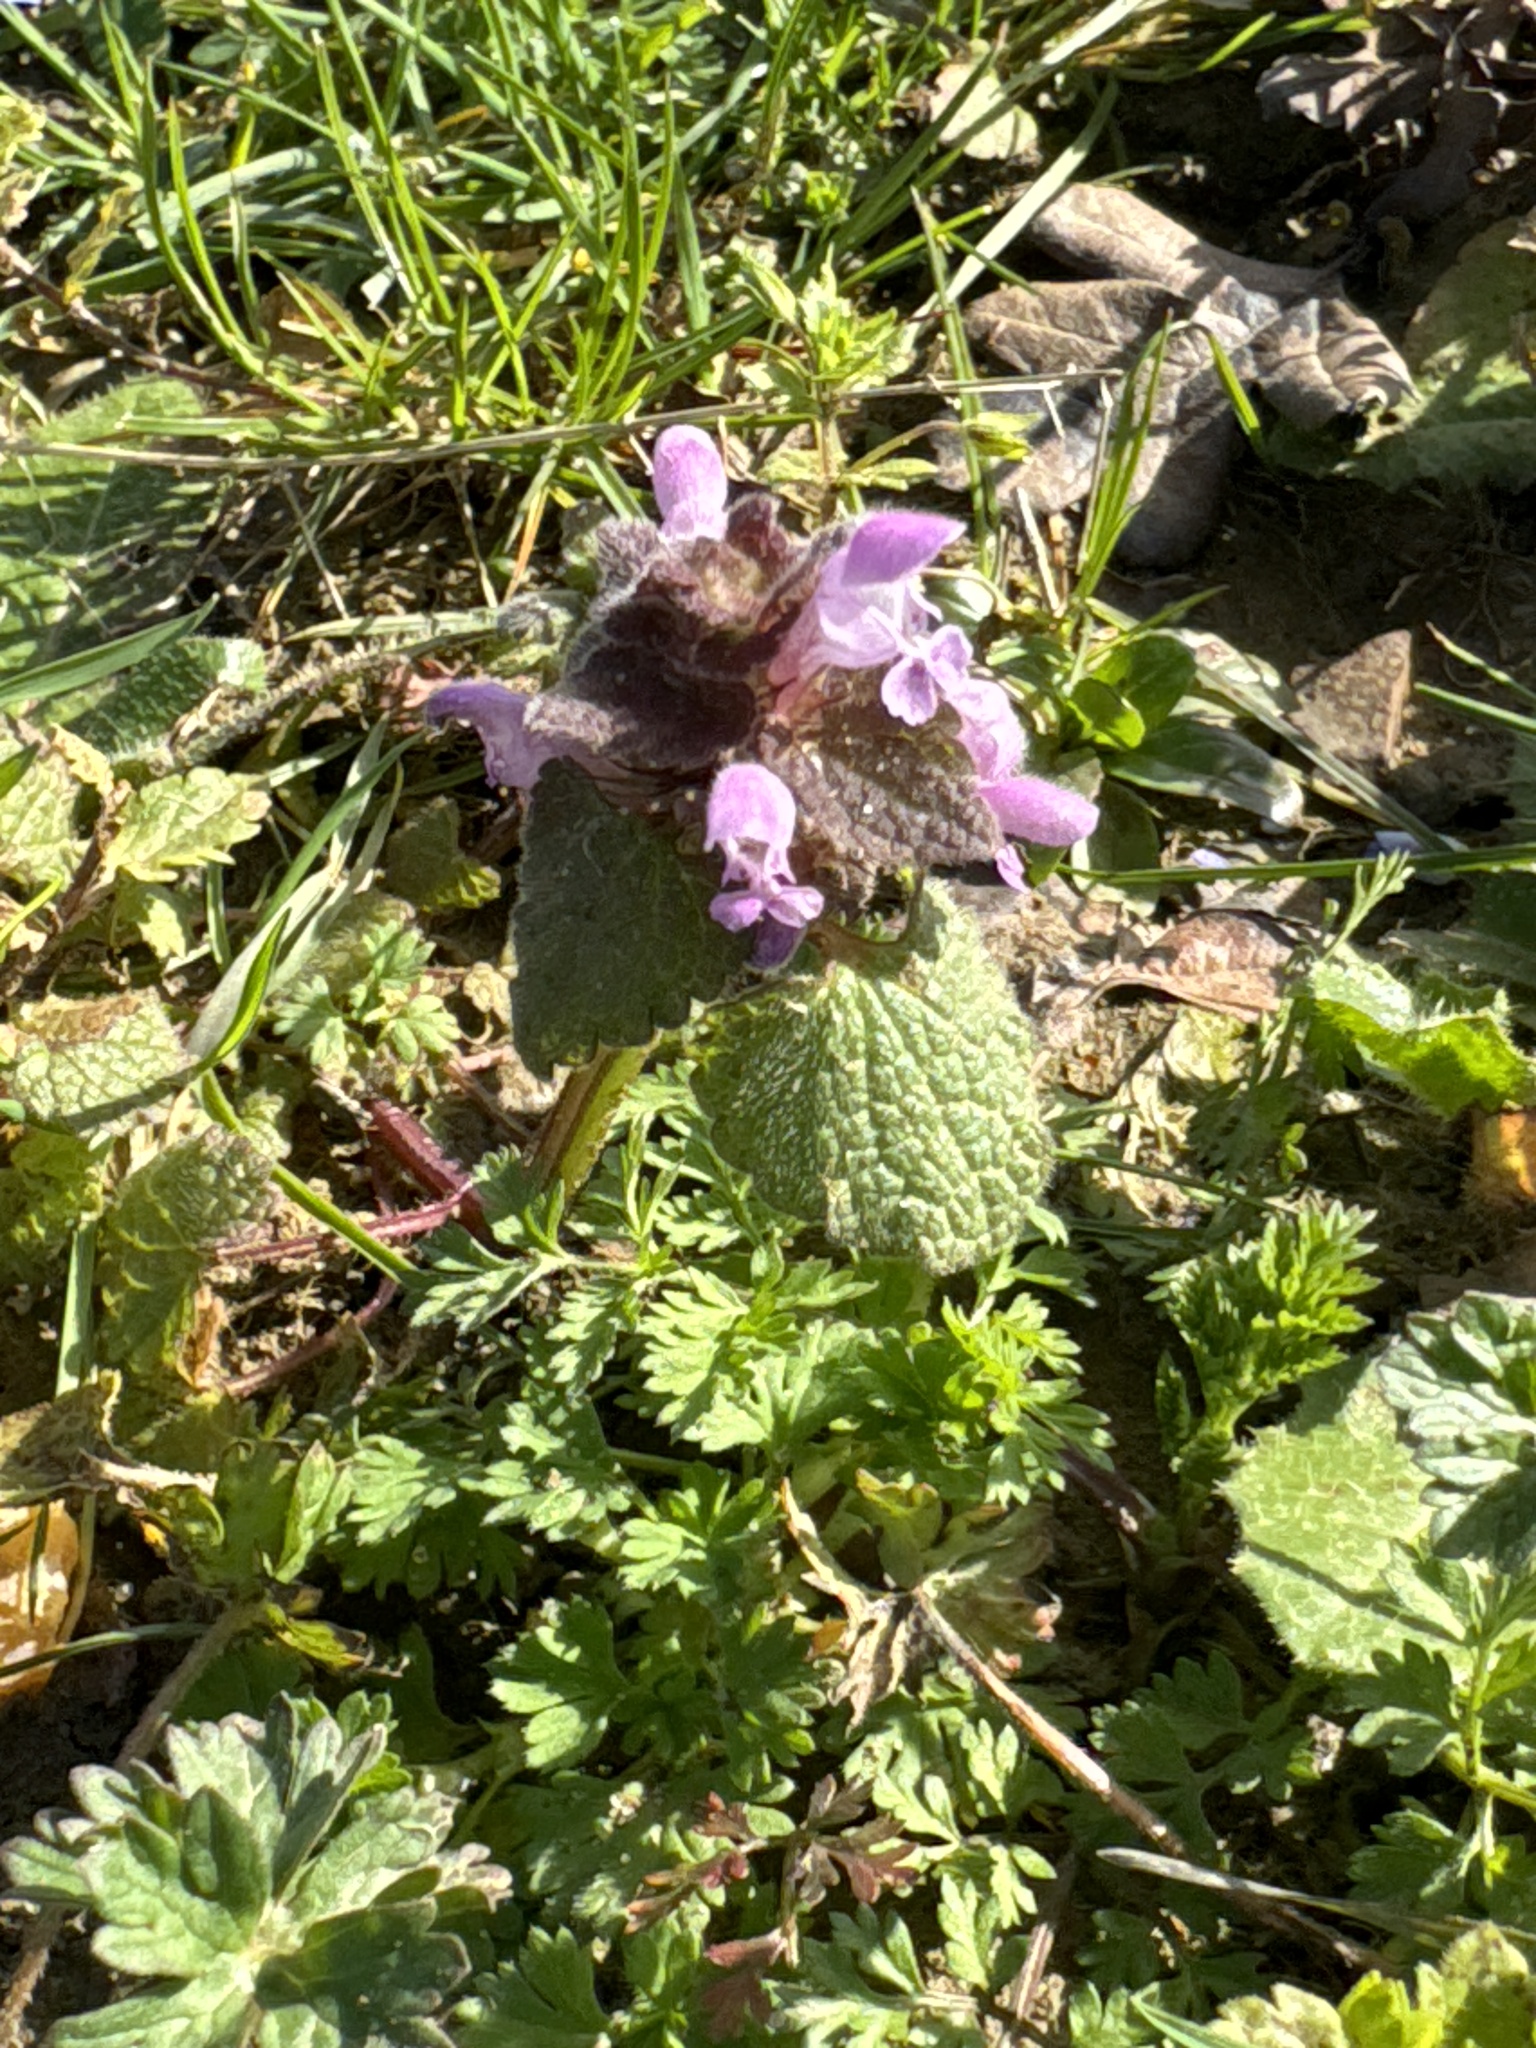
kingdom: Plantae
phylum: Tracheophyta
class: Magnoliopsida
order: Lamiales
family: Lamiaceae
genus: Lamium
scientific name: Lamium purpureum
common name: Red dead-nettle
